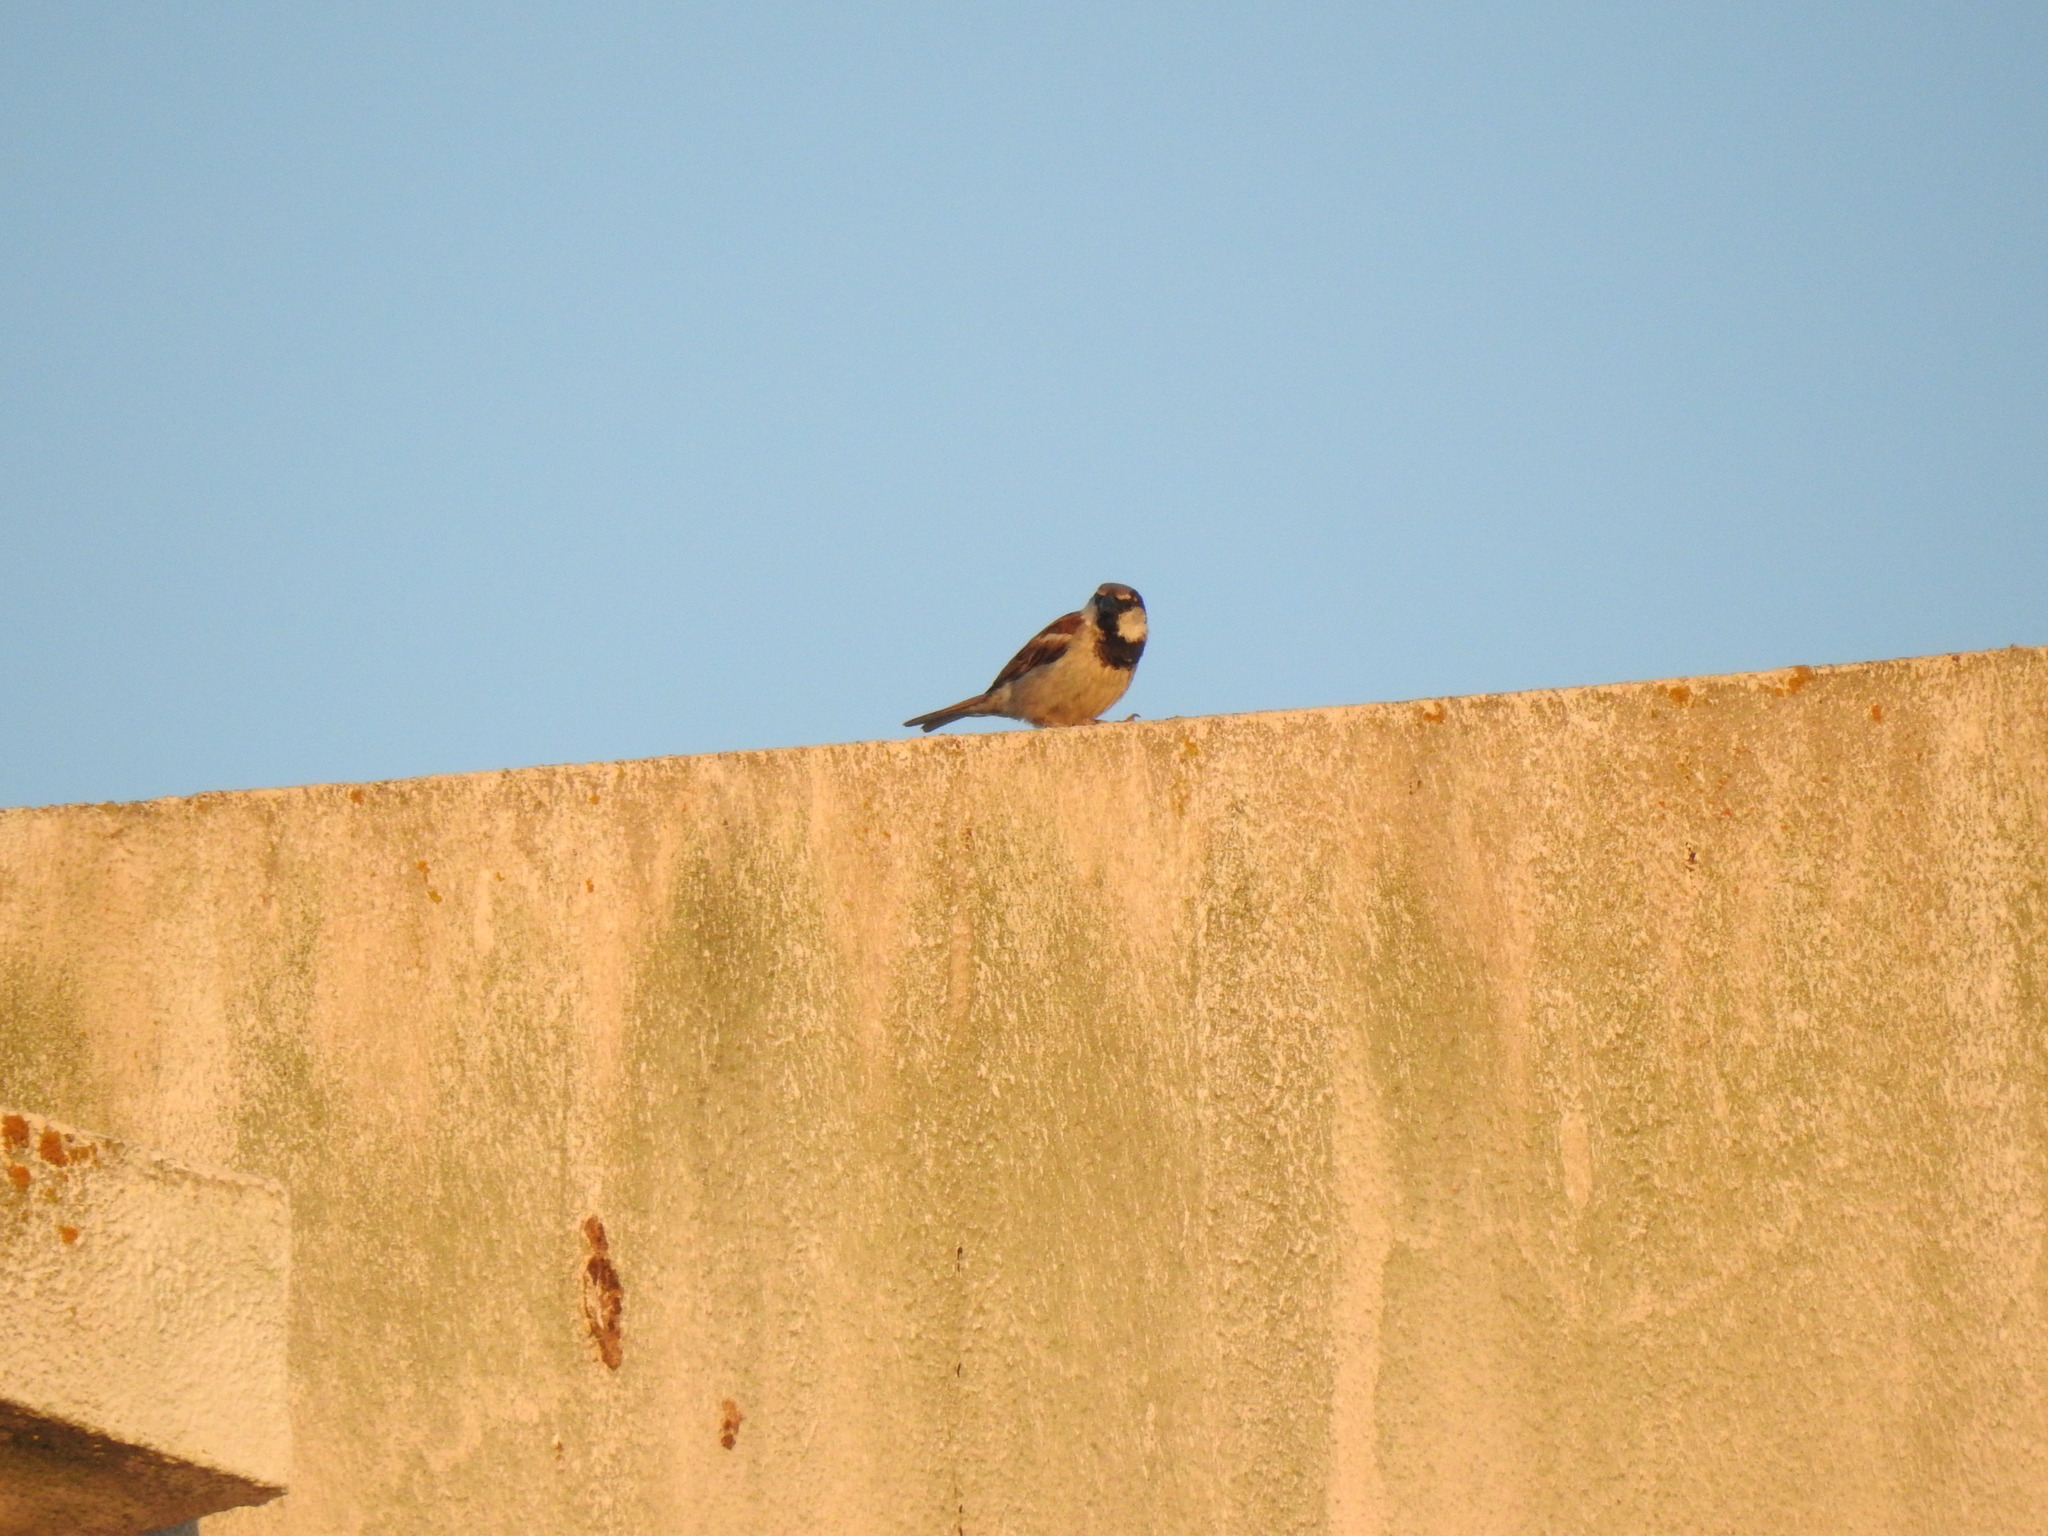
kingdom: Animalia
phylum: Chordata
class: Aves
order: Passeriformes
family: Passeridae
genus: Passer
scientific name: Passer domesticus
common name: House sparrow
